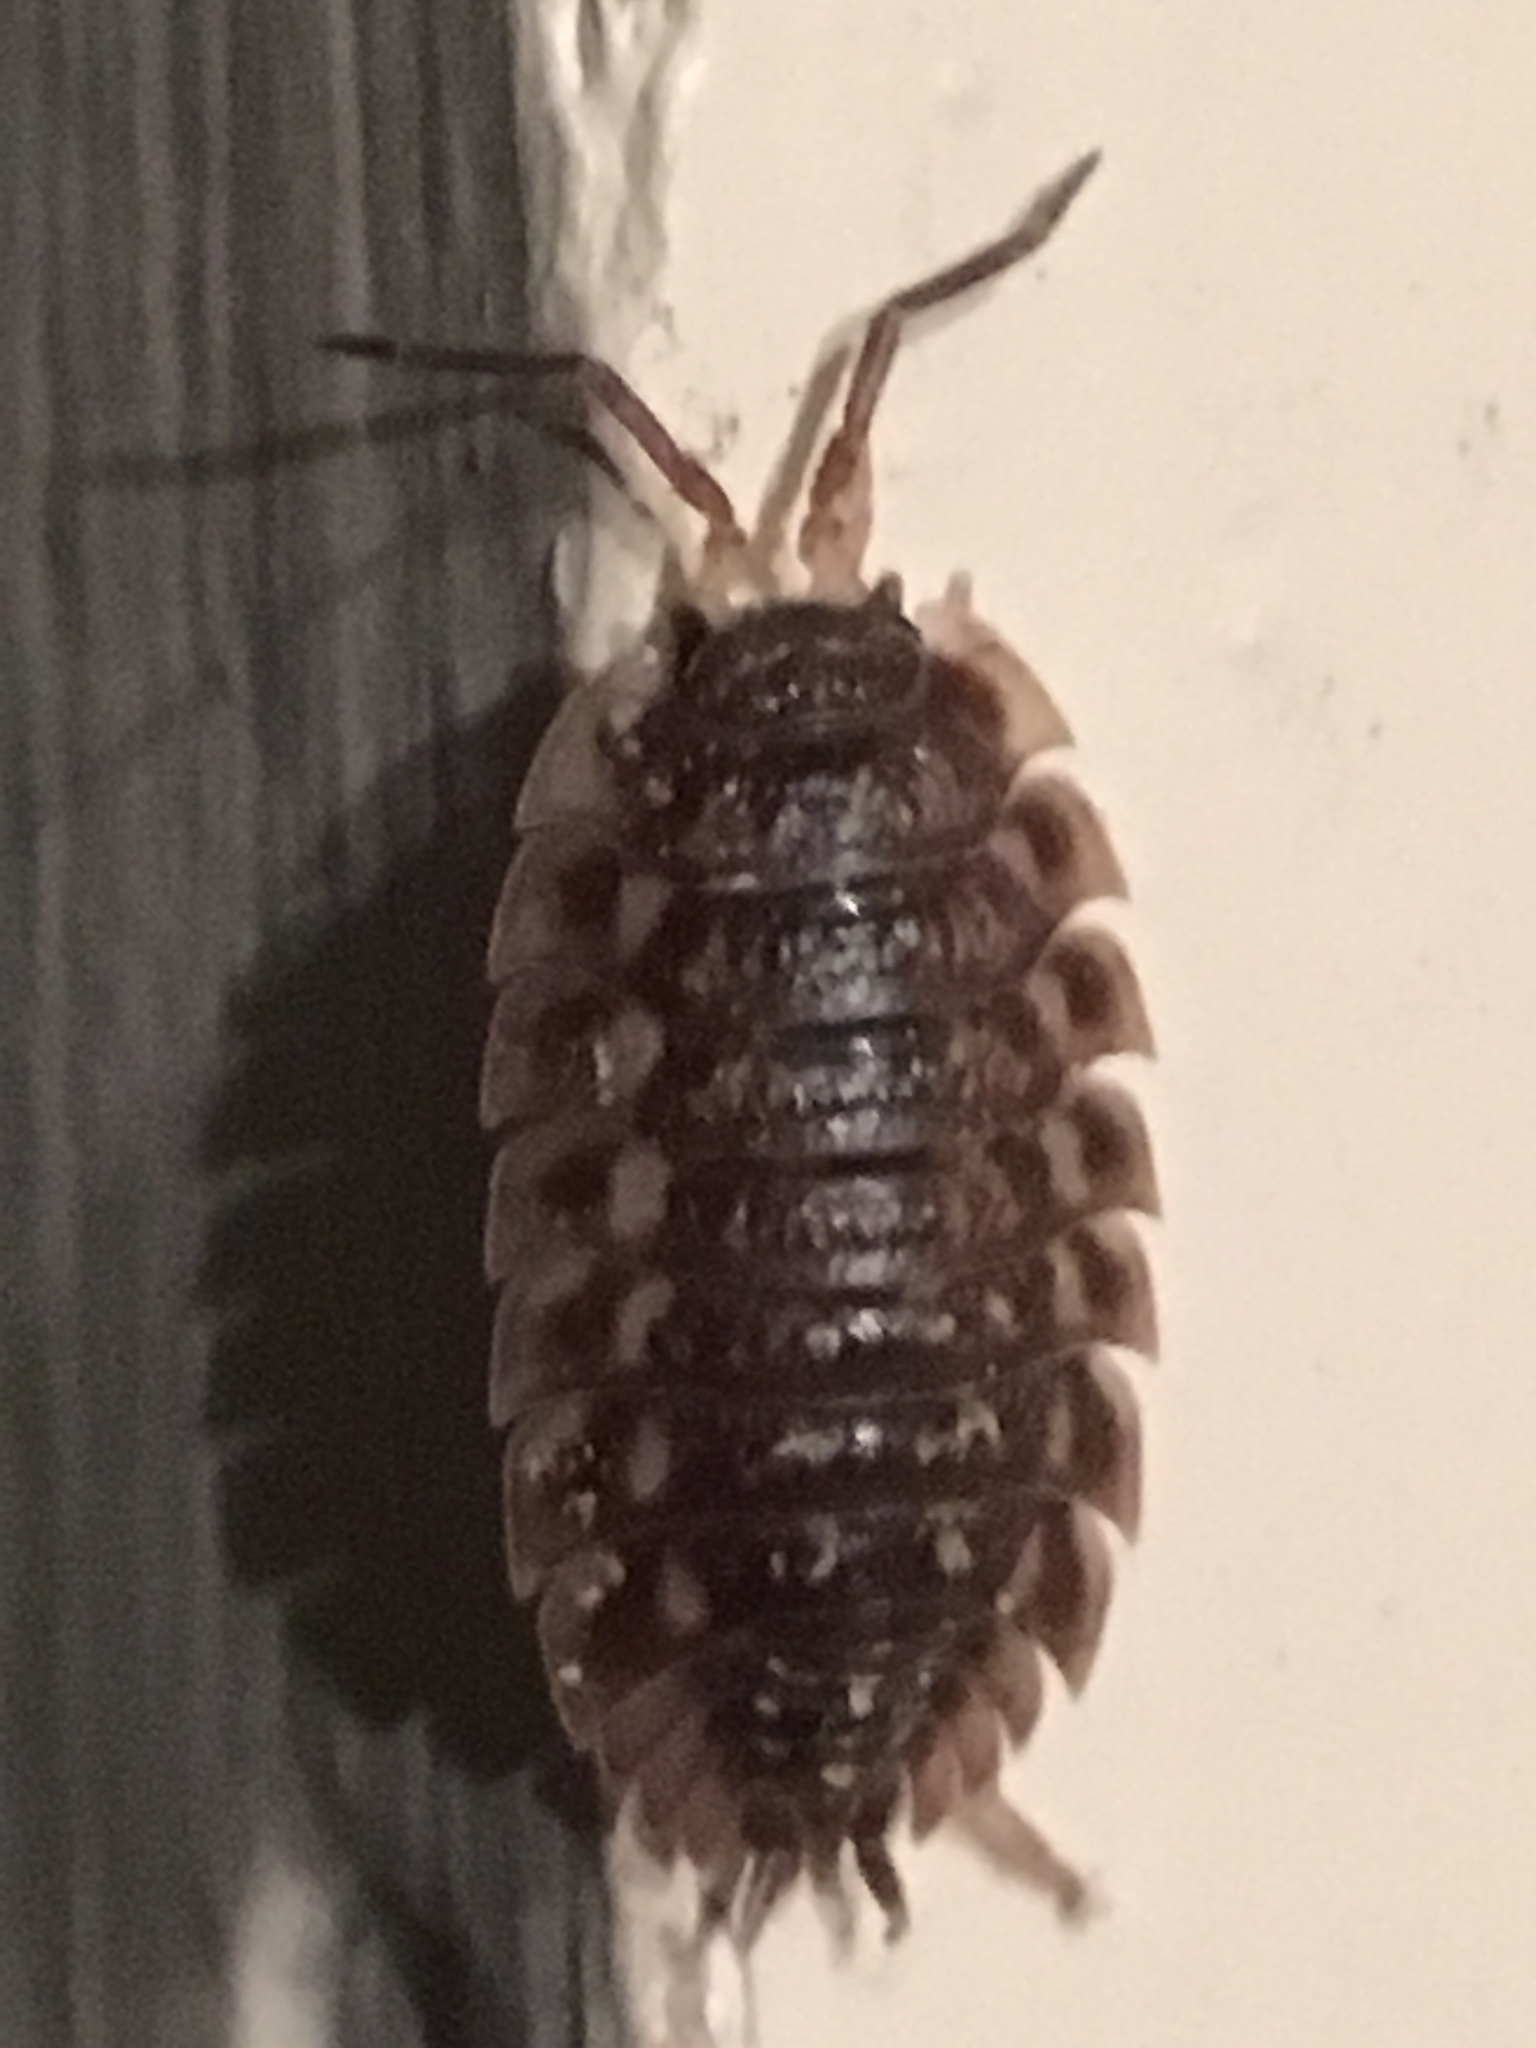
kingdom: Animalia
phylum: Arthropoda
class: Malacostraca
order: Isopoda
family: Oniscidae
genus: Oniscus
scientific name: Oniscus asellus
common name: Common shiny woodlouse
